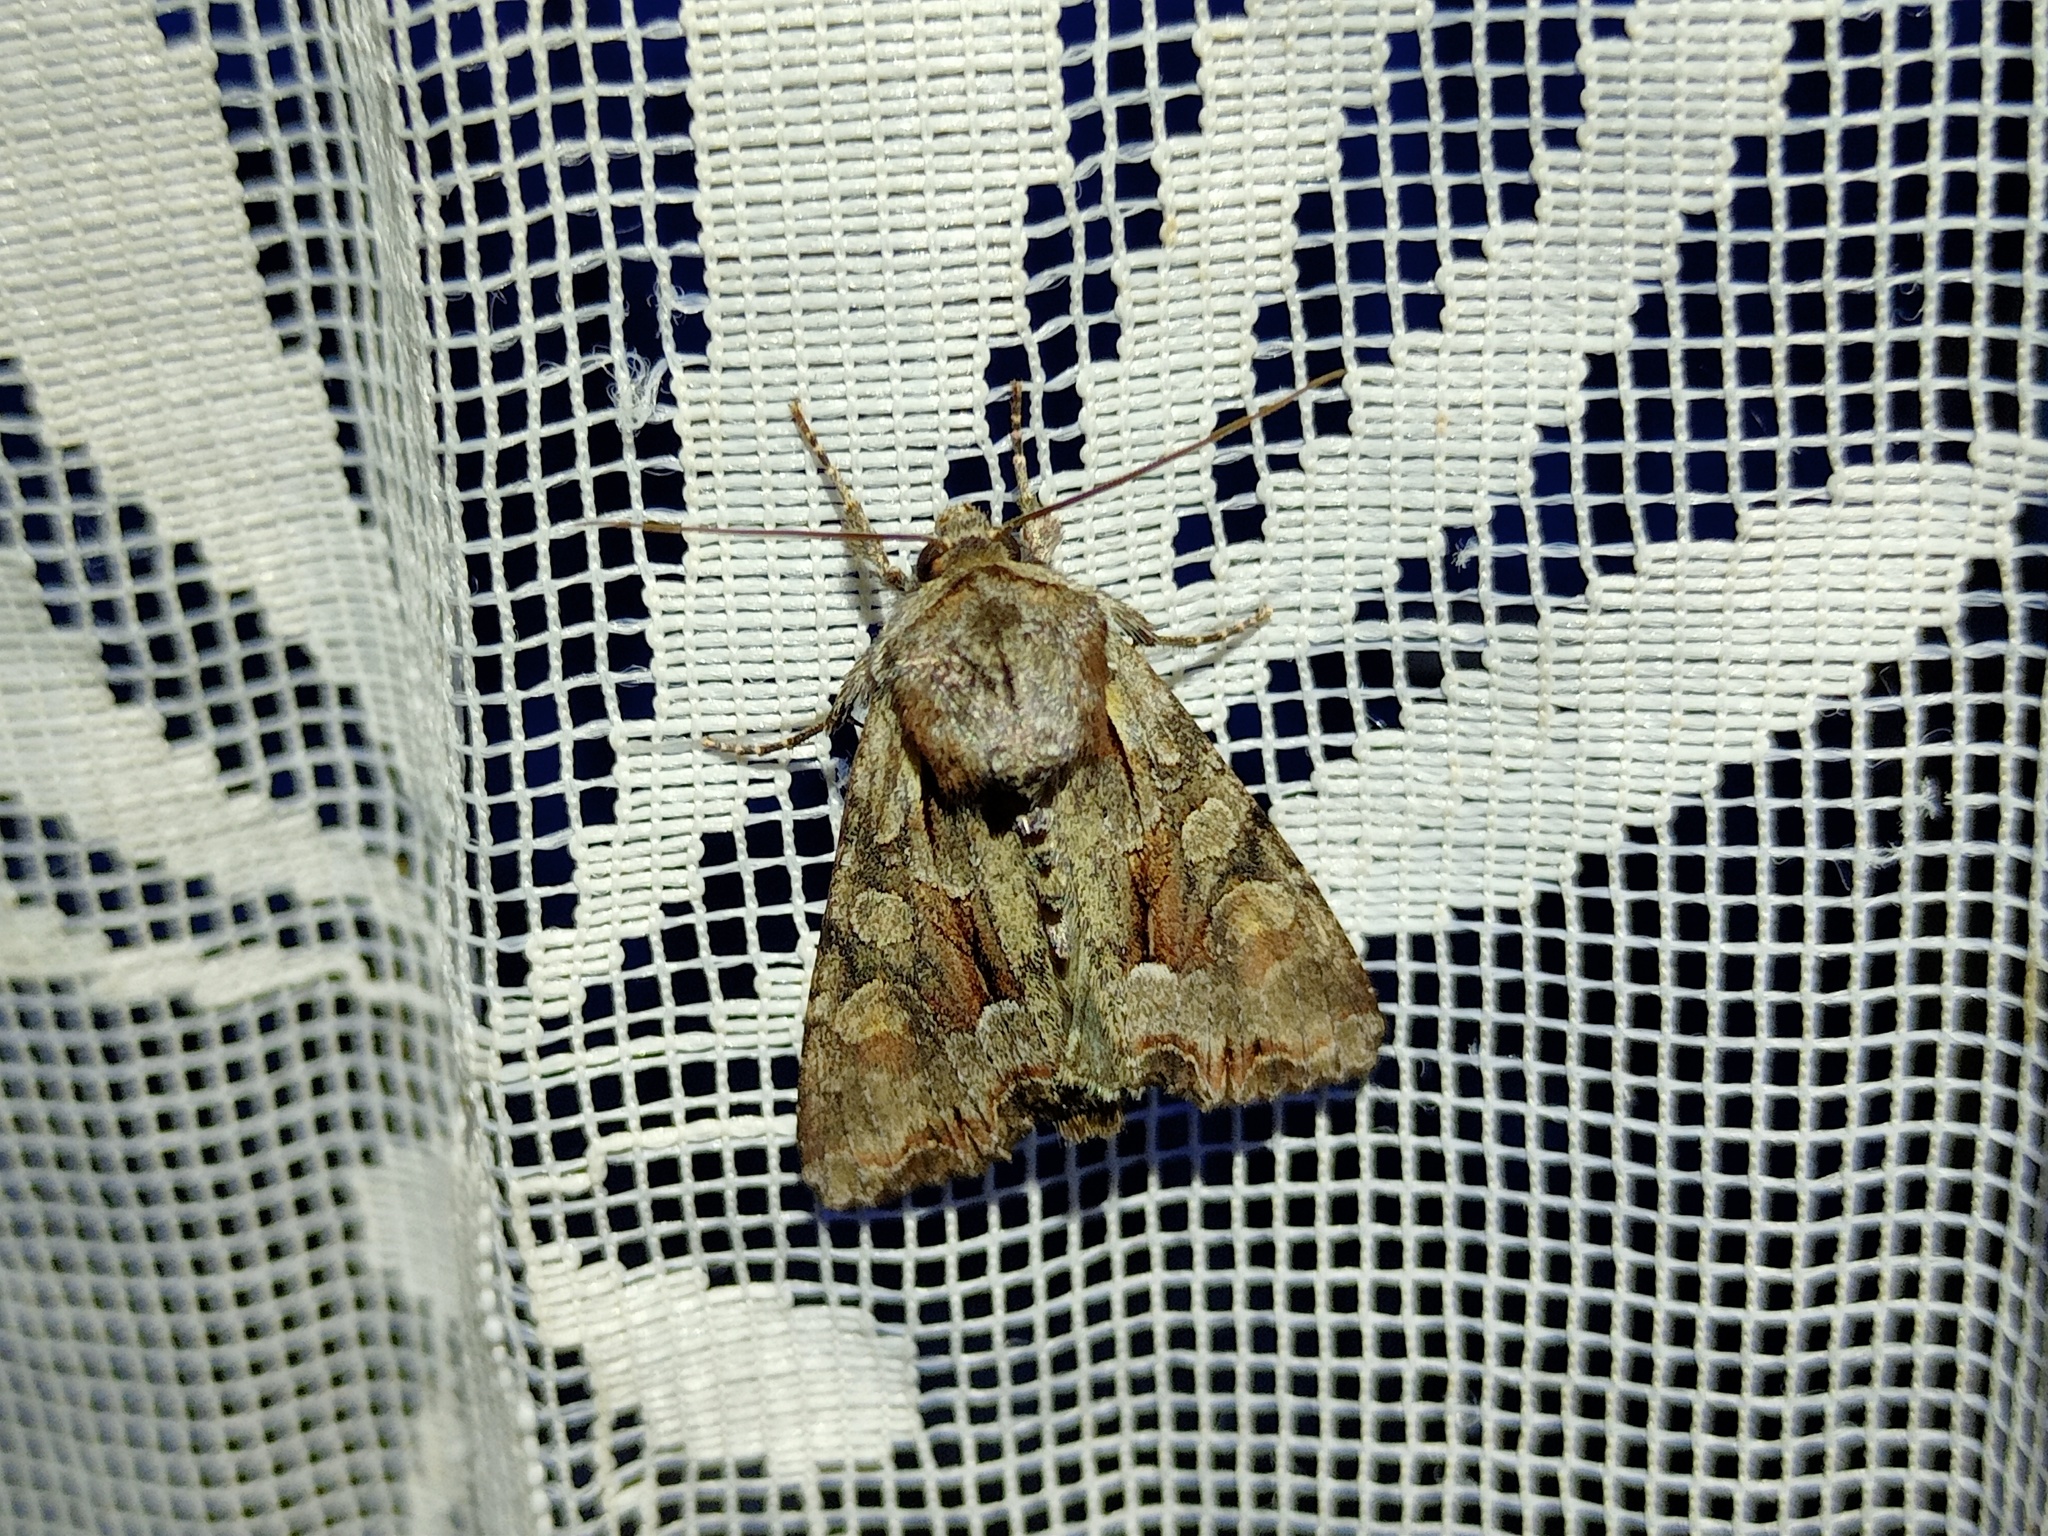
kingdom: Animalia
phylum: Arthropoda
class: Insecta
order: Lepidoptera
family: Noctuidae
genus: Lacanobia
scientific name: Lacanobia w-latinum
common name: Light brocade
